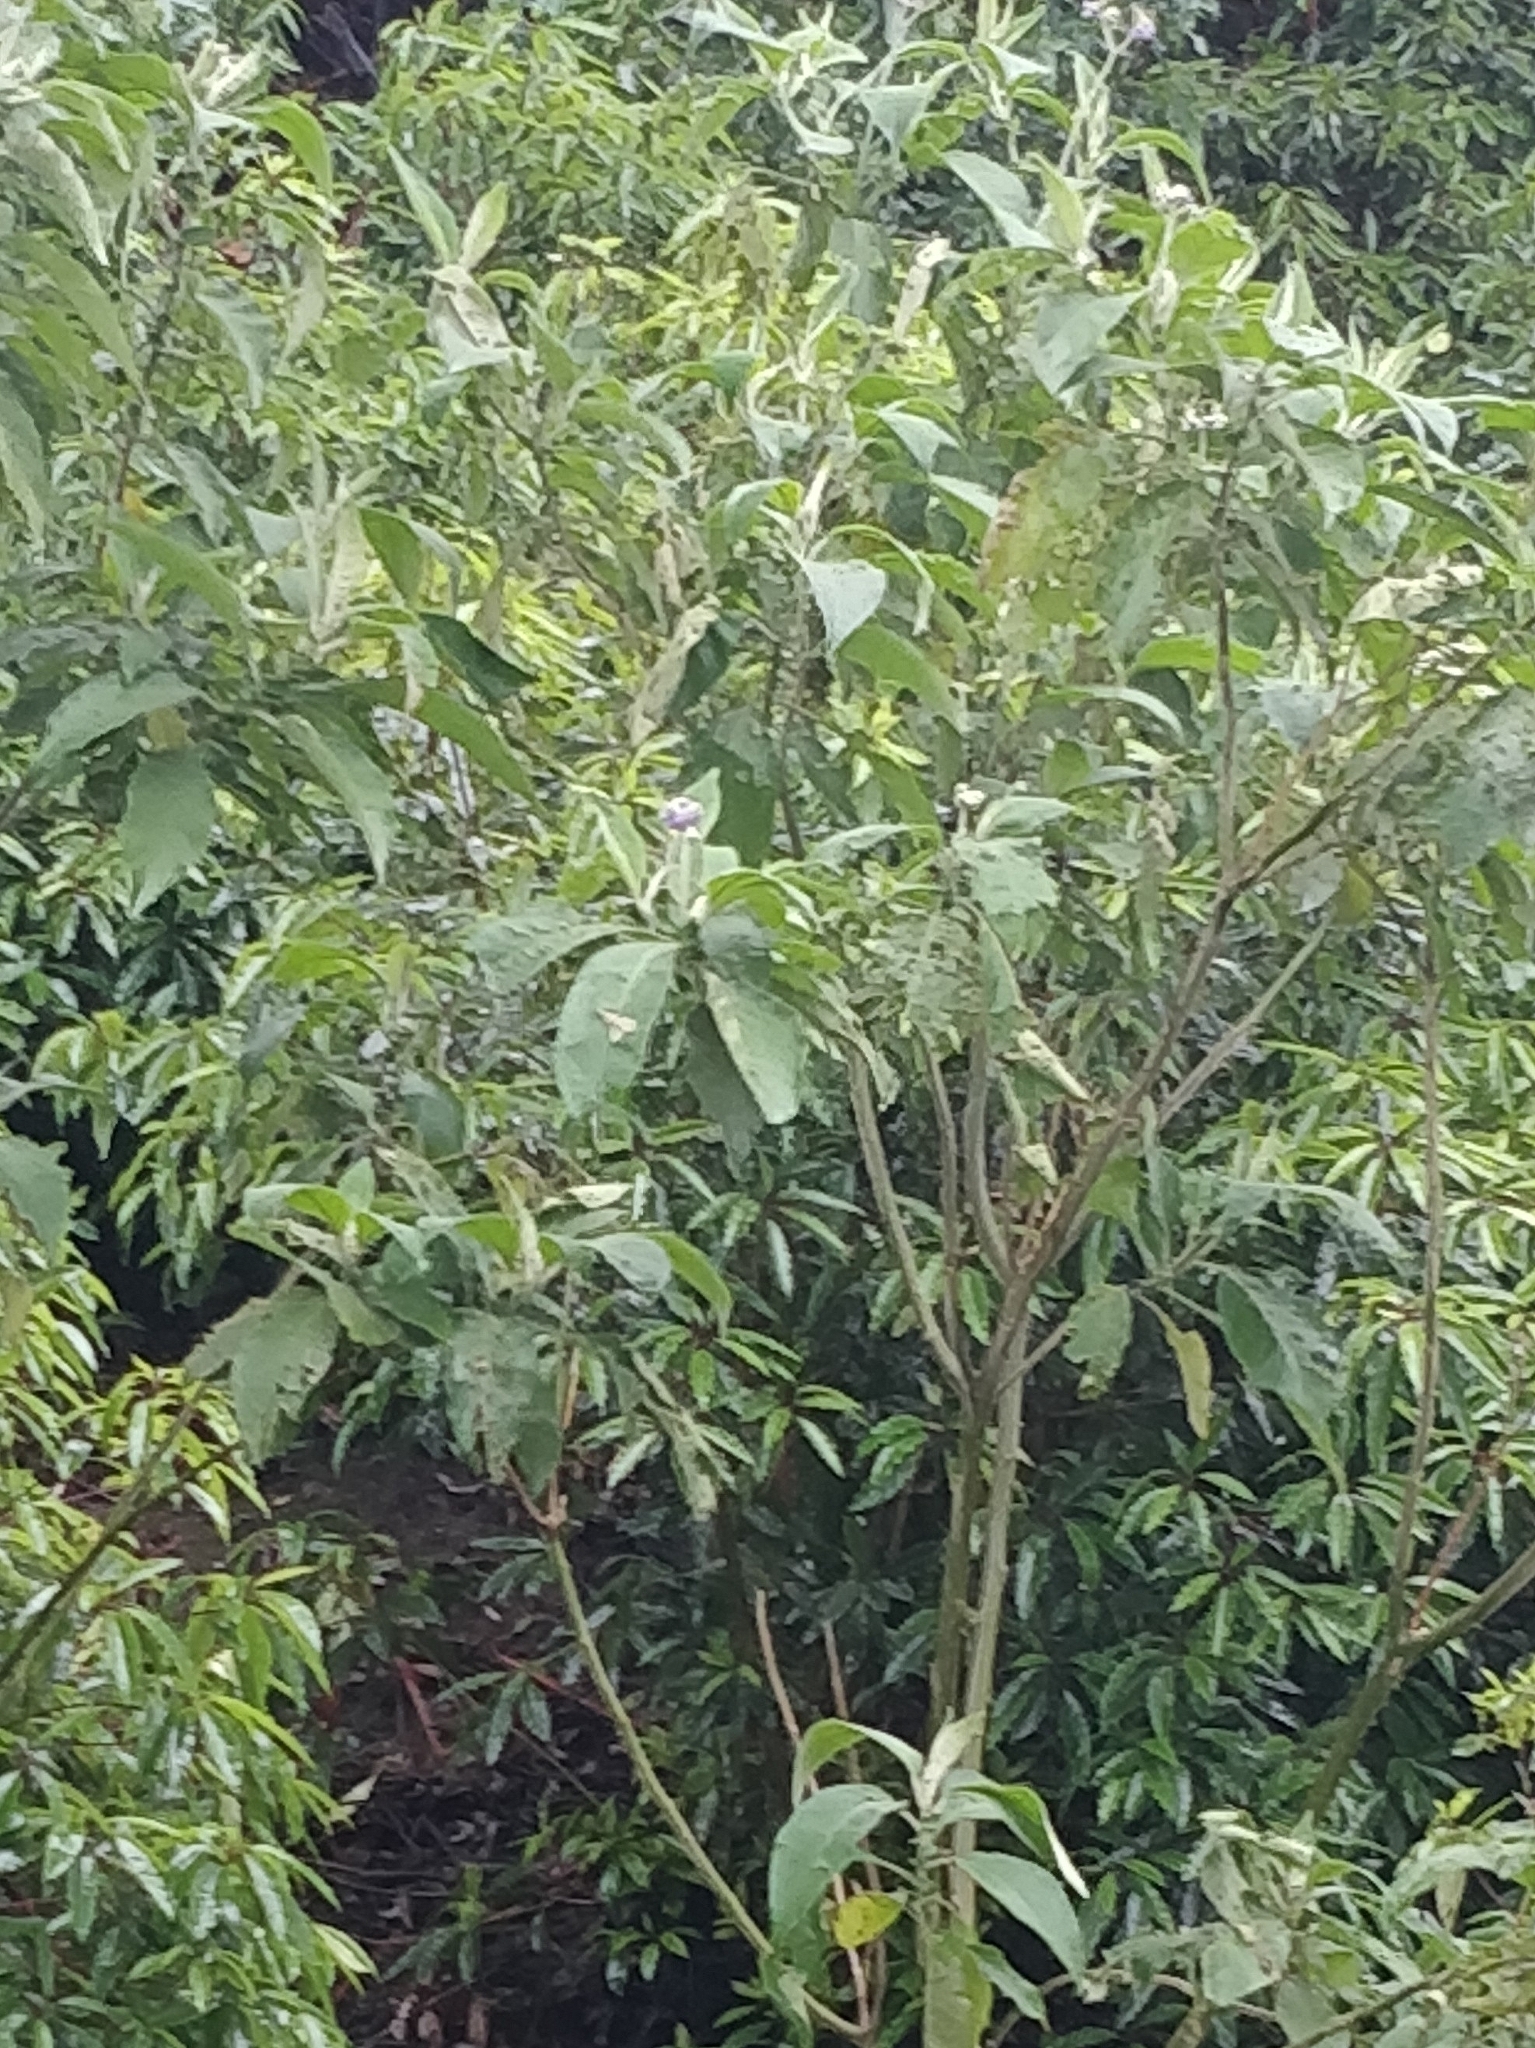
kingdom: Plantae
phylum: Tracheophyta
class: Magnoliopsida
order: Solanales
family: Solanaceae
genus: Solanum
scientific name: Solanum mauritianum
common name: Earleaf nightshade
